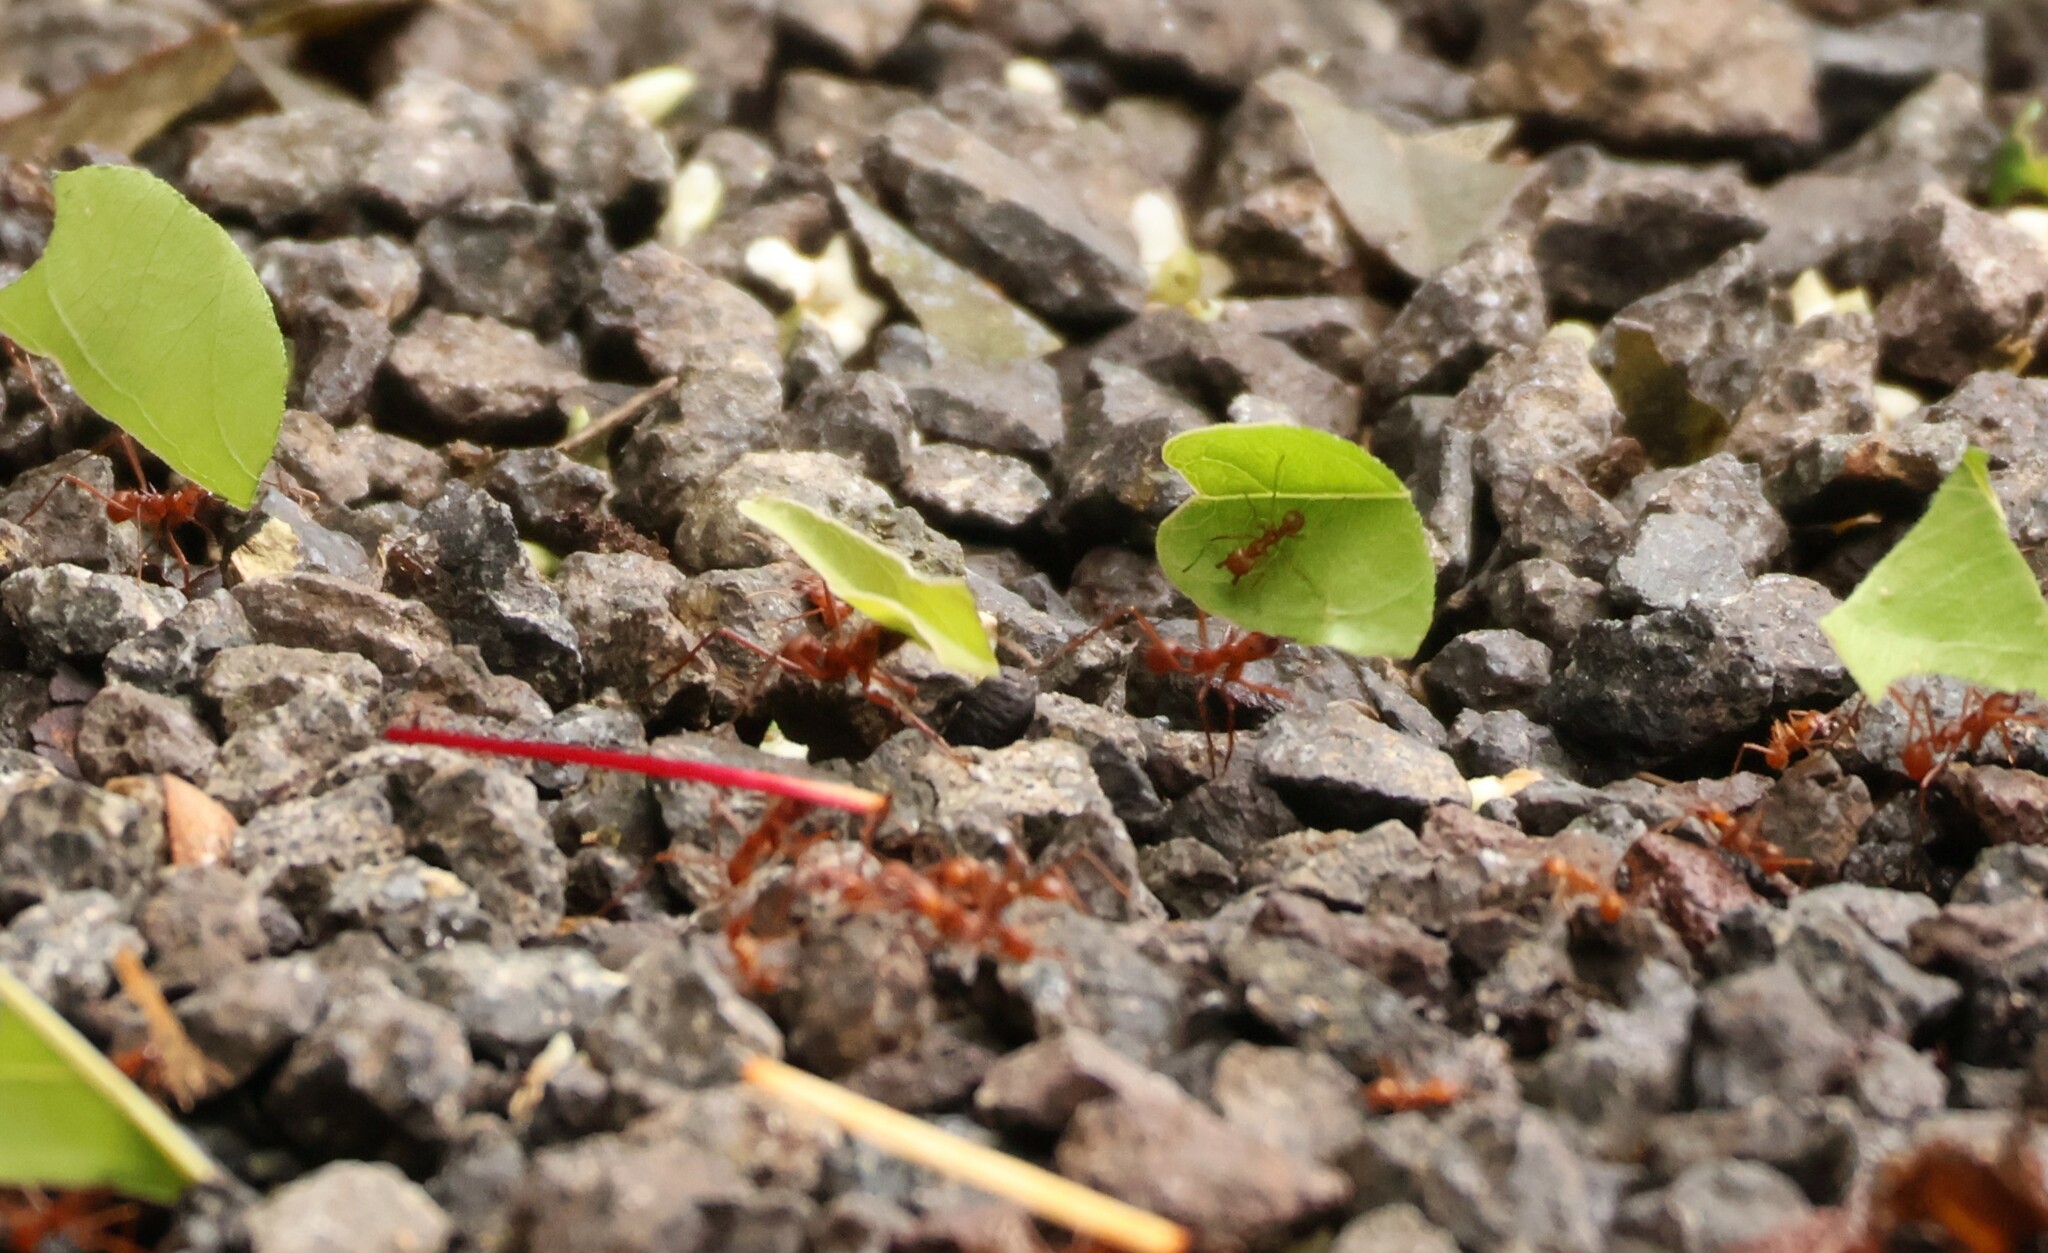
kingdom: Animalia
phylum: Arthropoda
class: Insecta
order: Hymenoptera
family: Formicidae
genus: Atta
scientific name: Atta cephalotes
